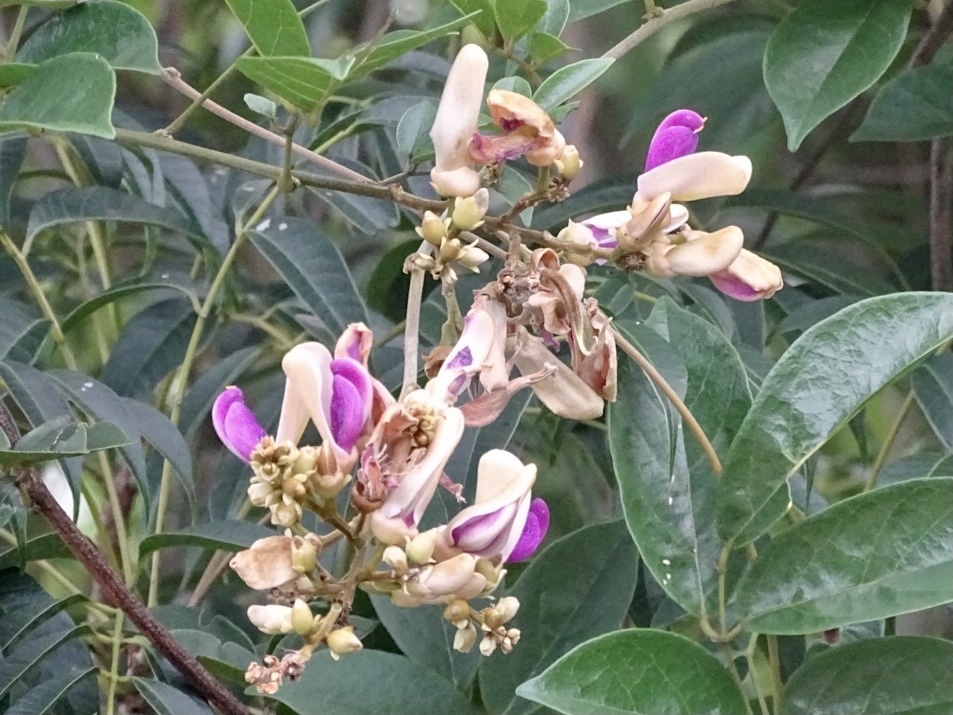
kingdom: Plantae
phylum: Tracheophyta
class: Magnoliopsida
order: Fabales
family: Fabaceae
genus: Callerya
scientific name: Callerya nitida
